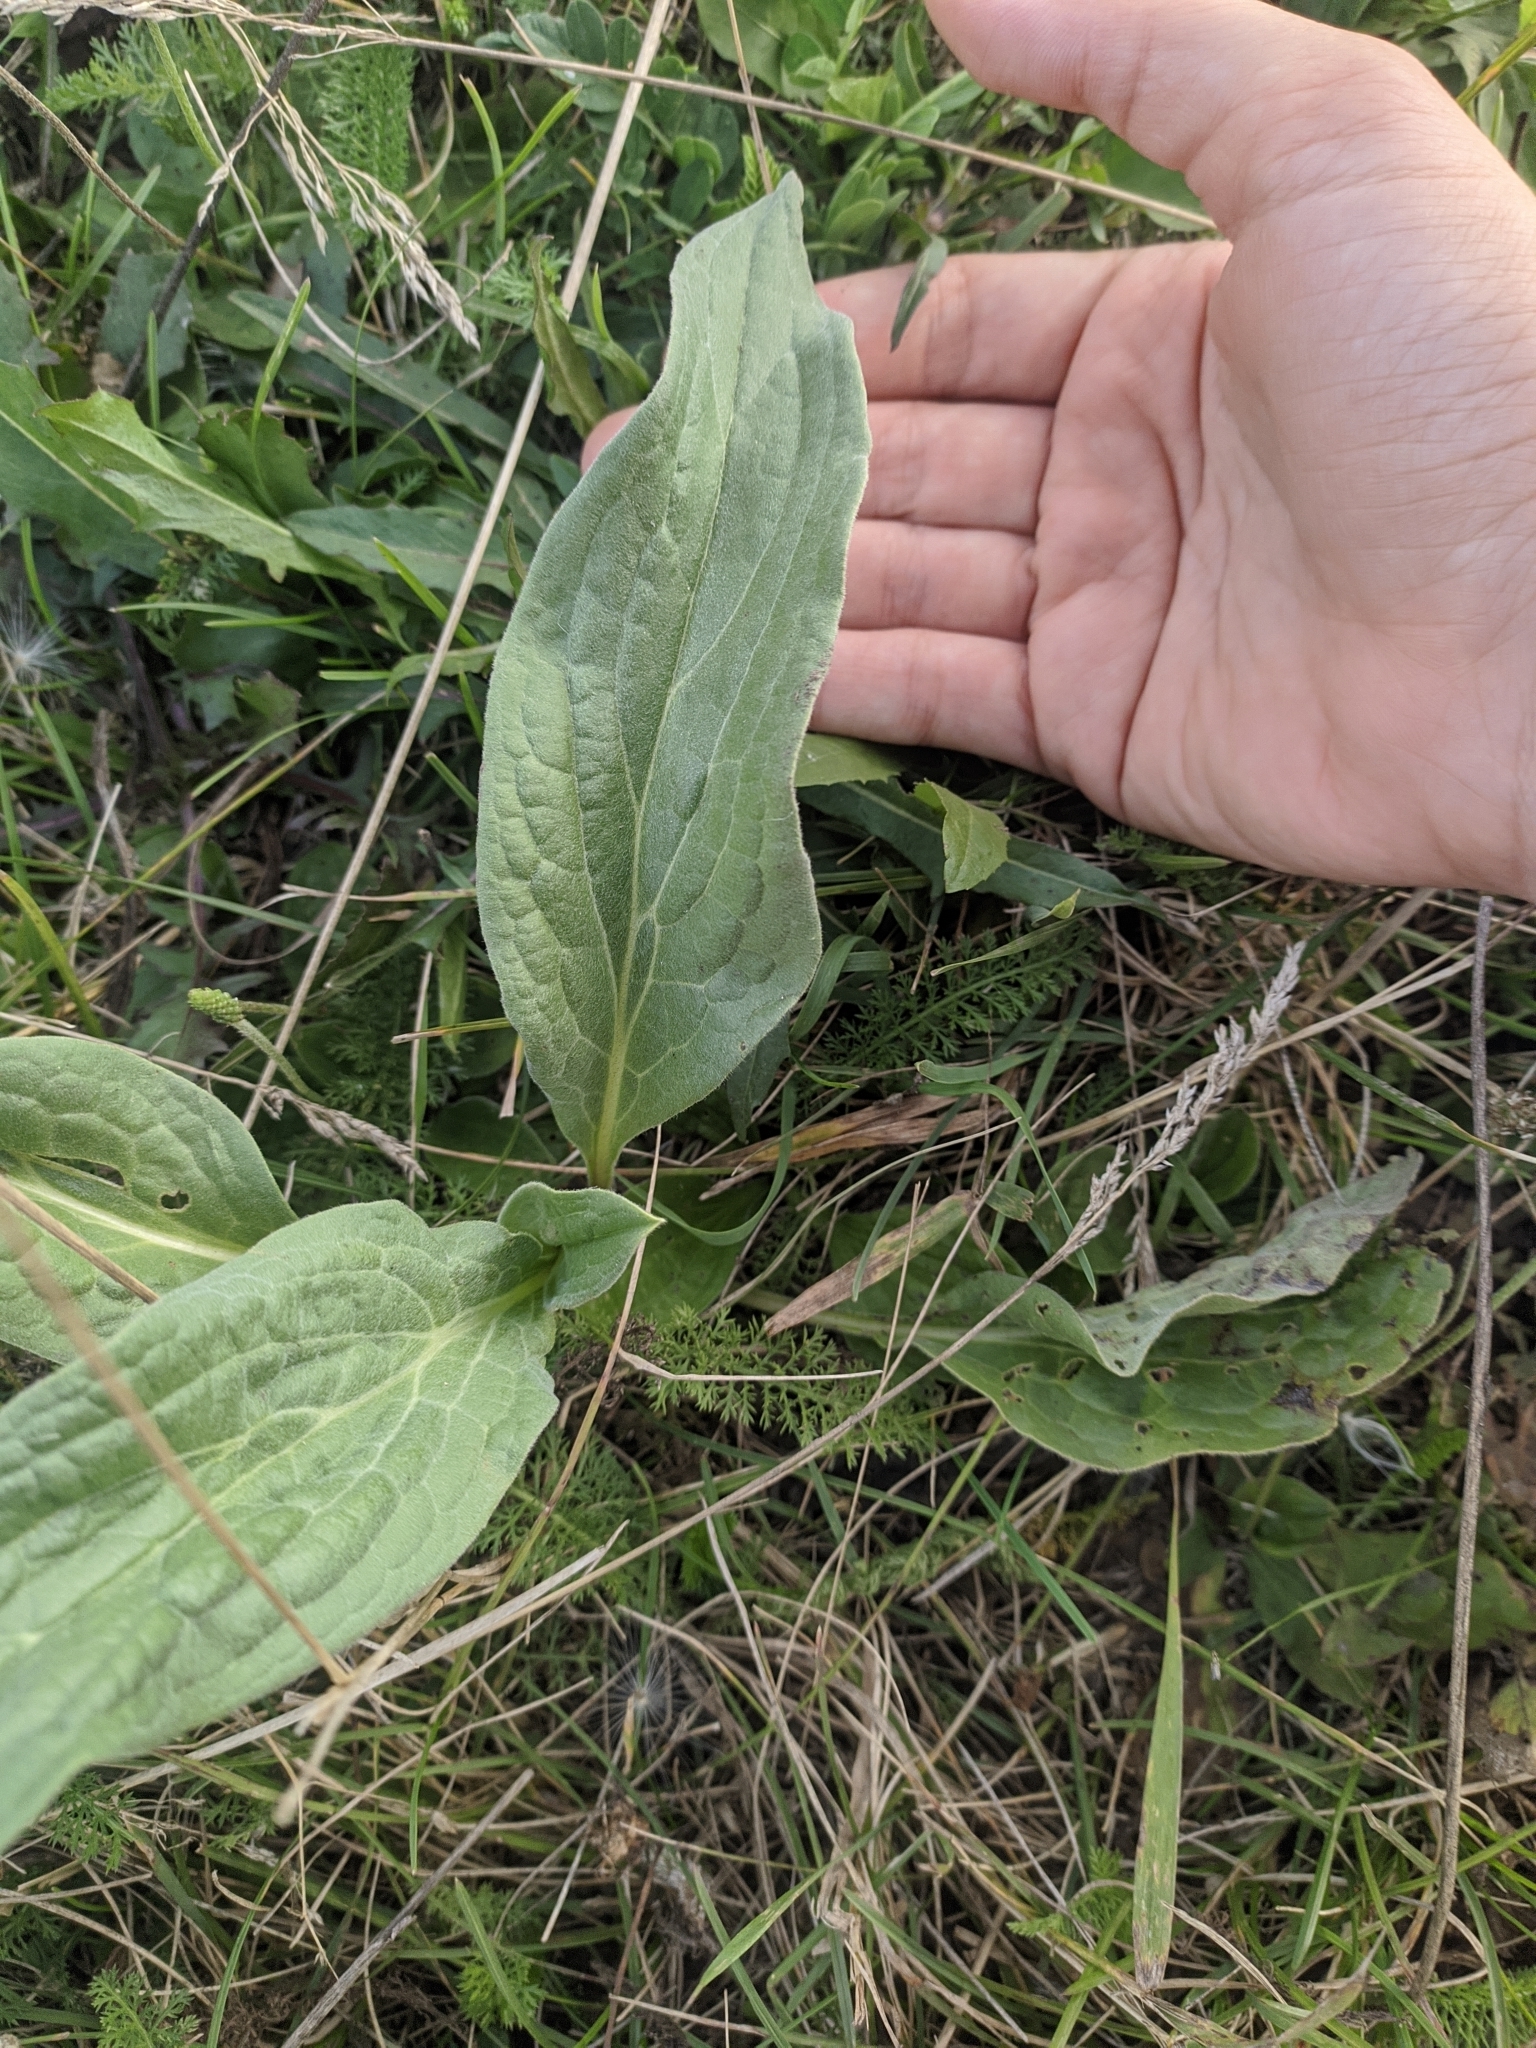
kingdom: Plantae
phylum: Tracheophyta
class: Magnoliopsida
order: Boraginales
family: Boraginaceae
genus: Cynoglossum
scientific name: Cynoglossum officinale
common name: Hound's-tongue
